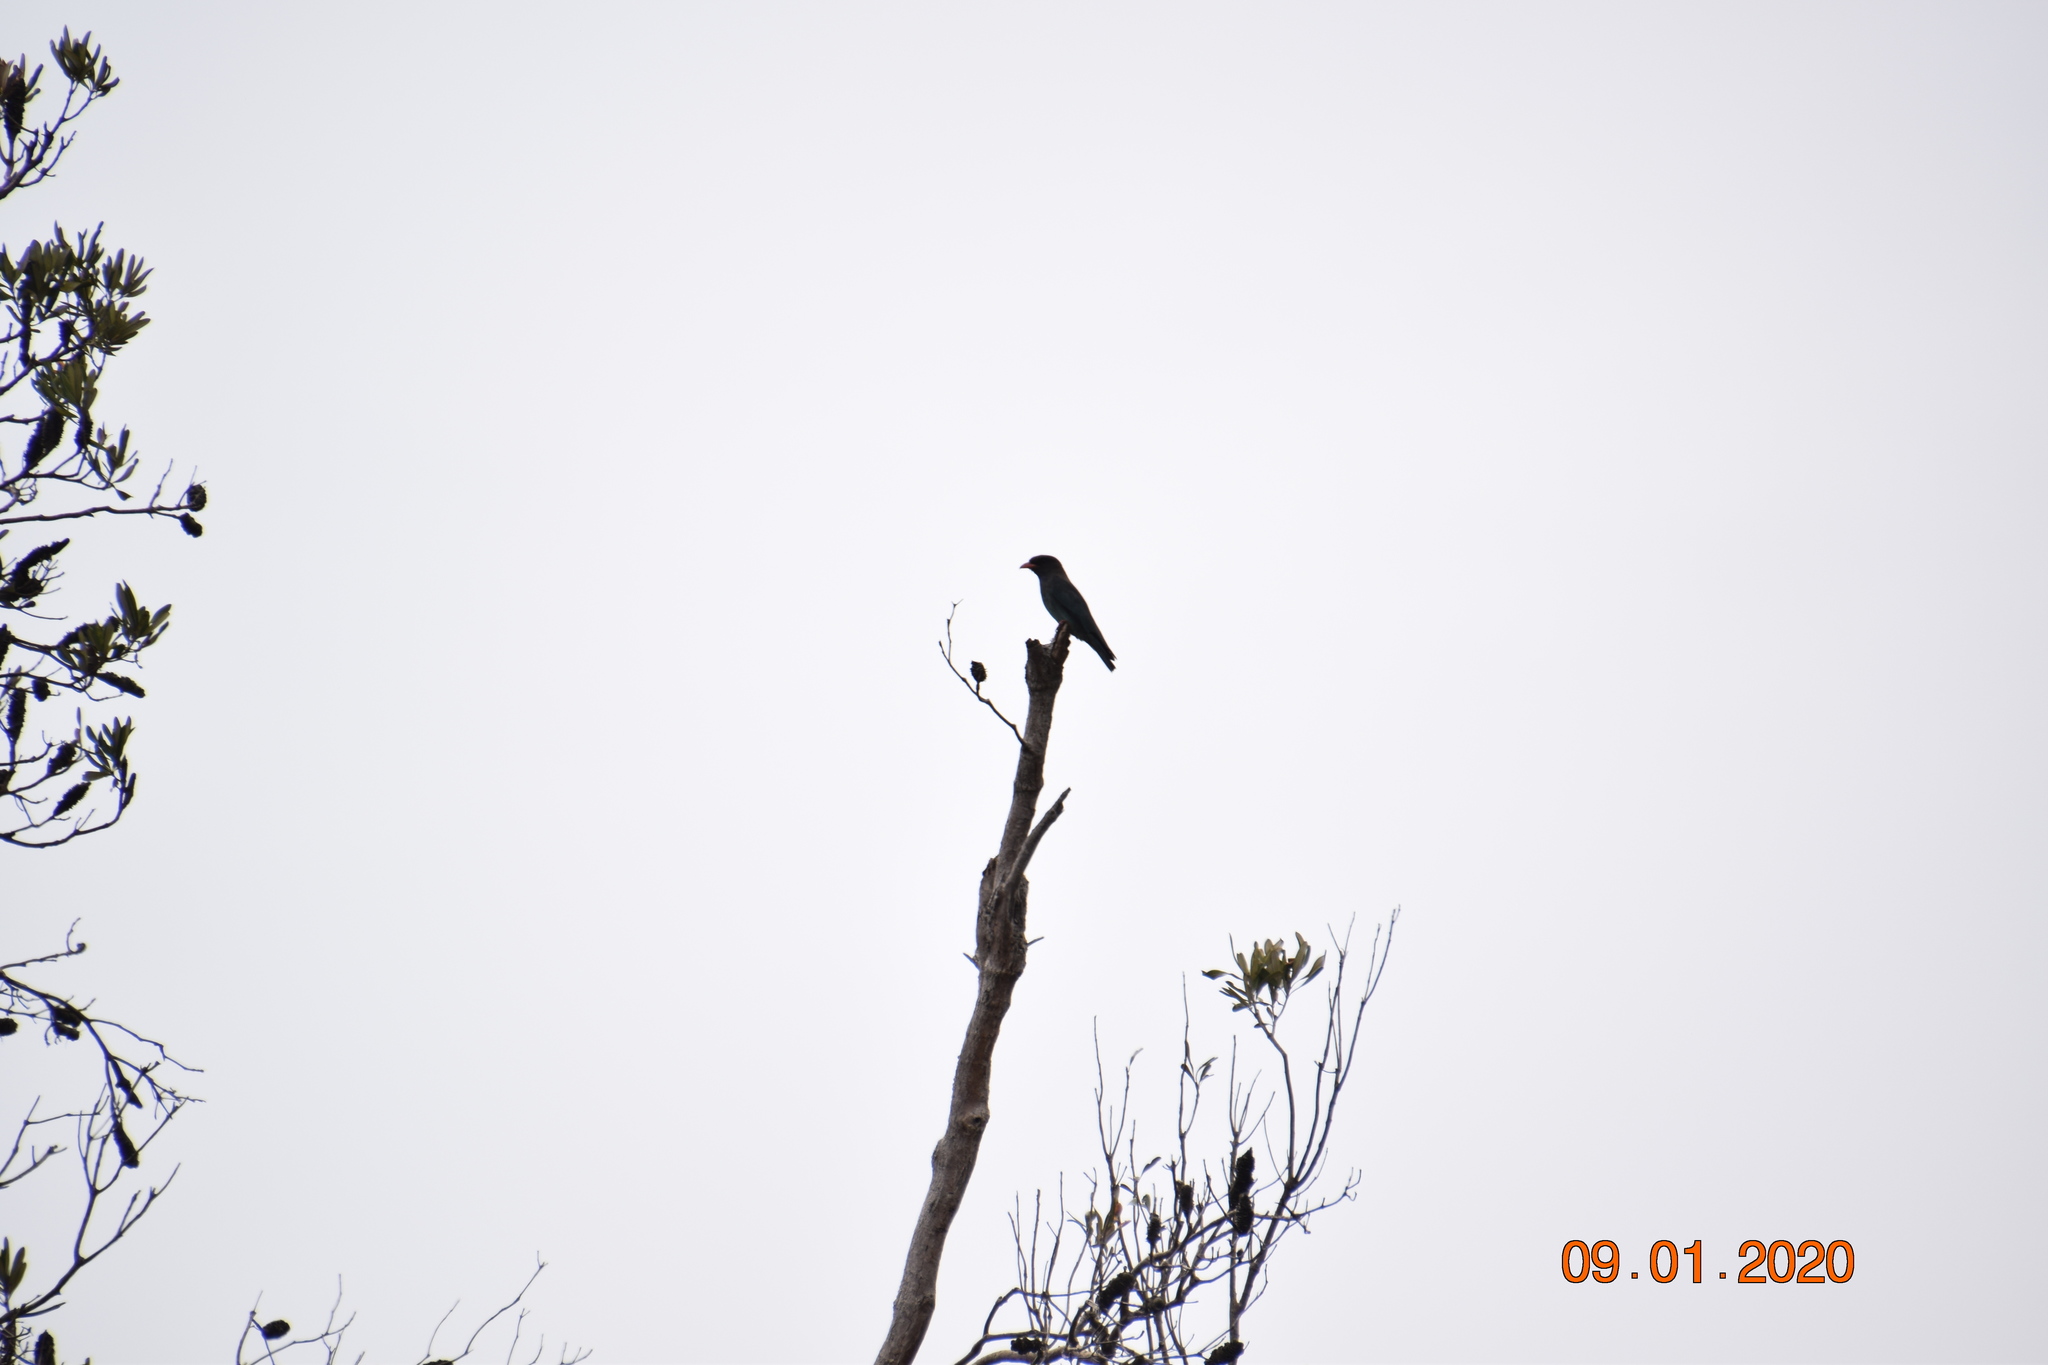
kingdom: Animalia
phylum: Chordata
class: Aves
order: Coraciiformes
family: Coraciidae
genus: Eurystomus
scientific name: Eurystomus orientalis
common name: Oriental dollarbird
